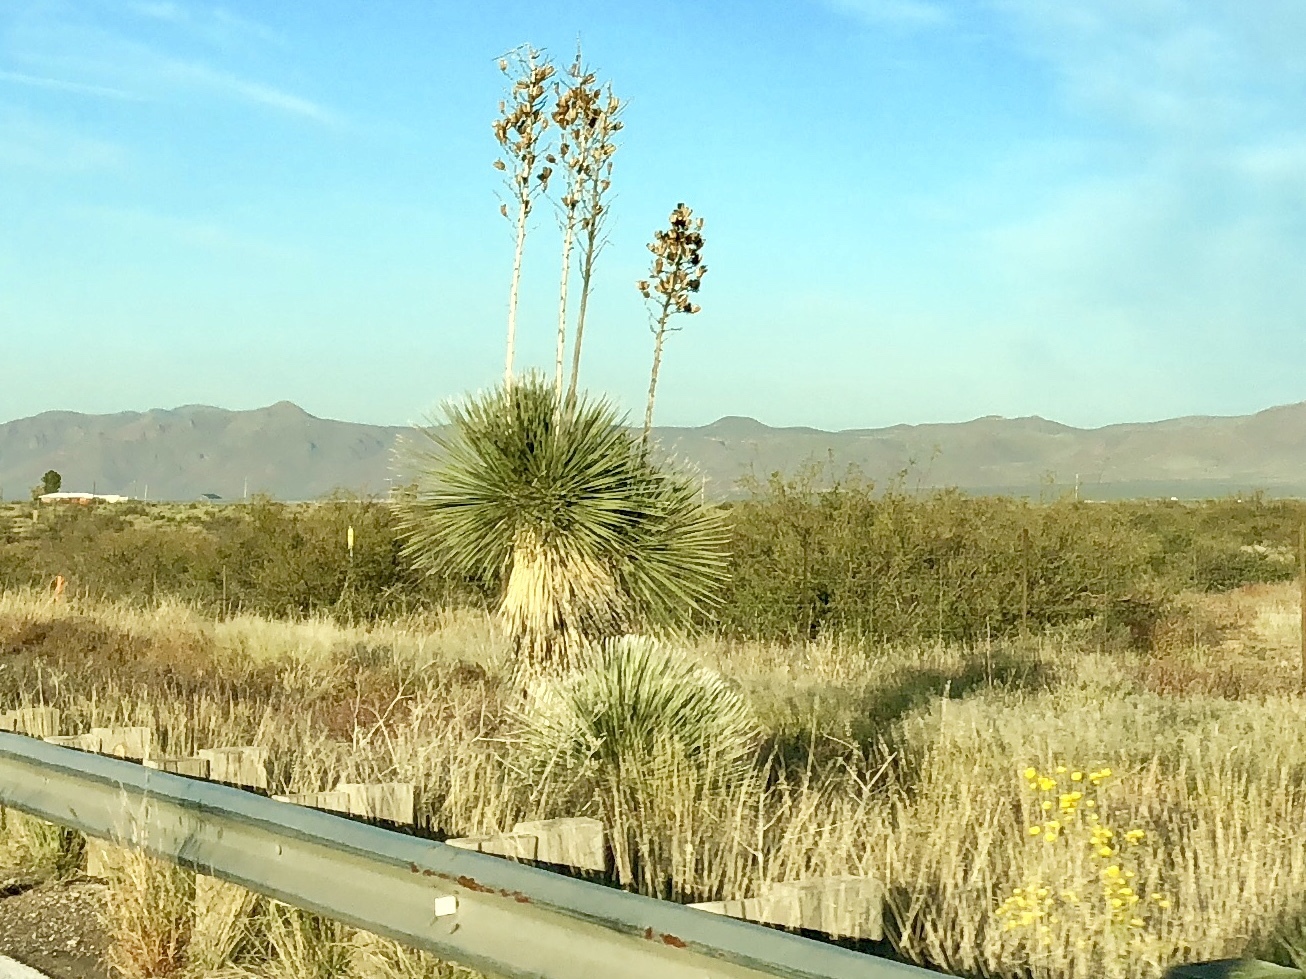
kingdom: Plantae
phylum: Tracheophyta
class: Liliopsida
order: Asparagales
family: Asparagaceae
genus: Yucca
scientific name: Yucca elata
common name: Palmella
